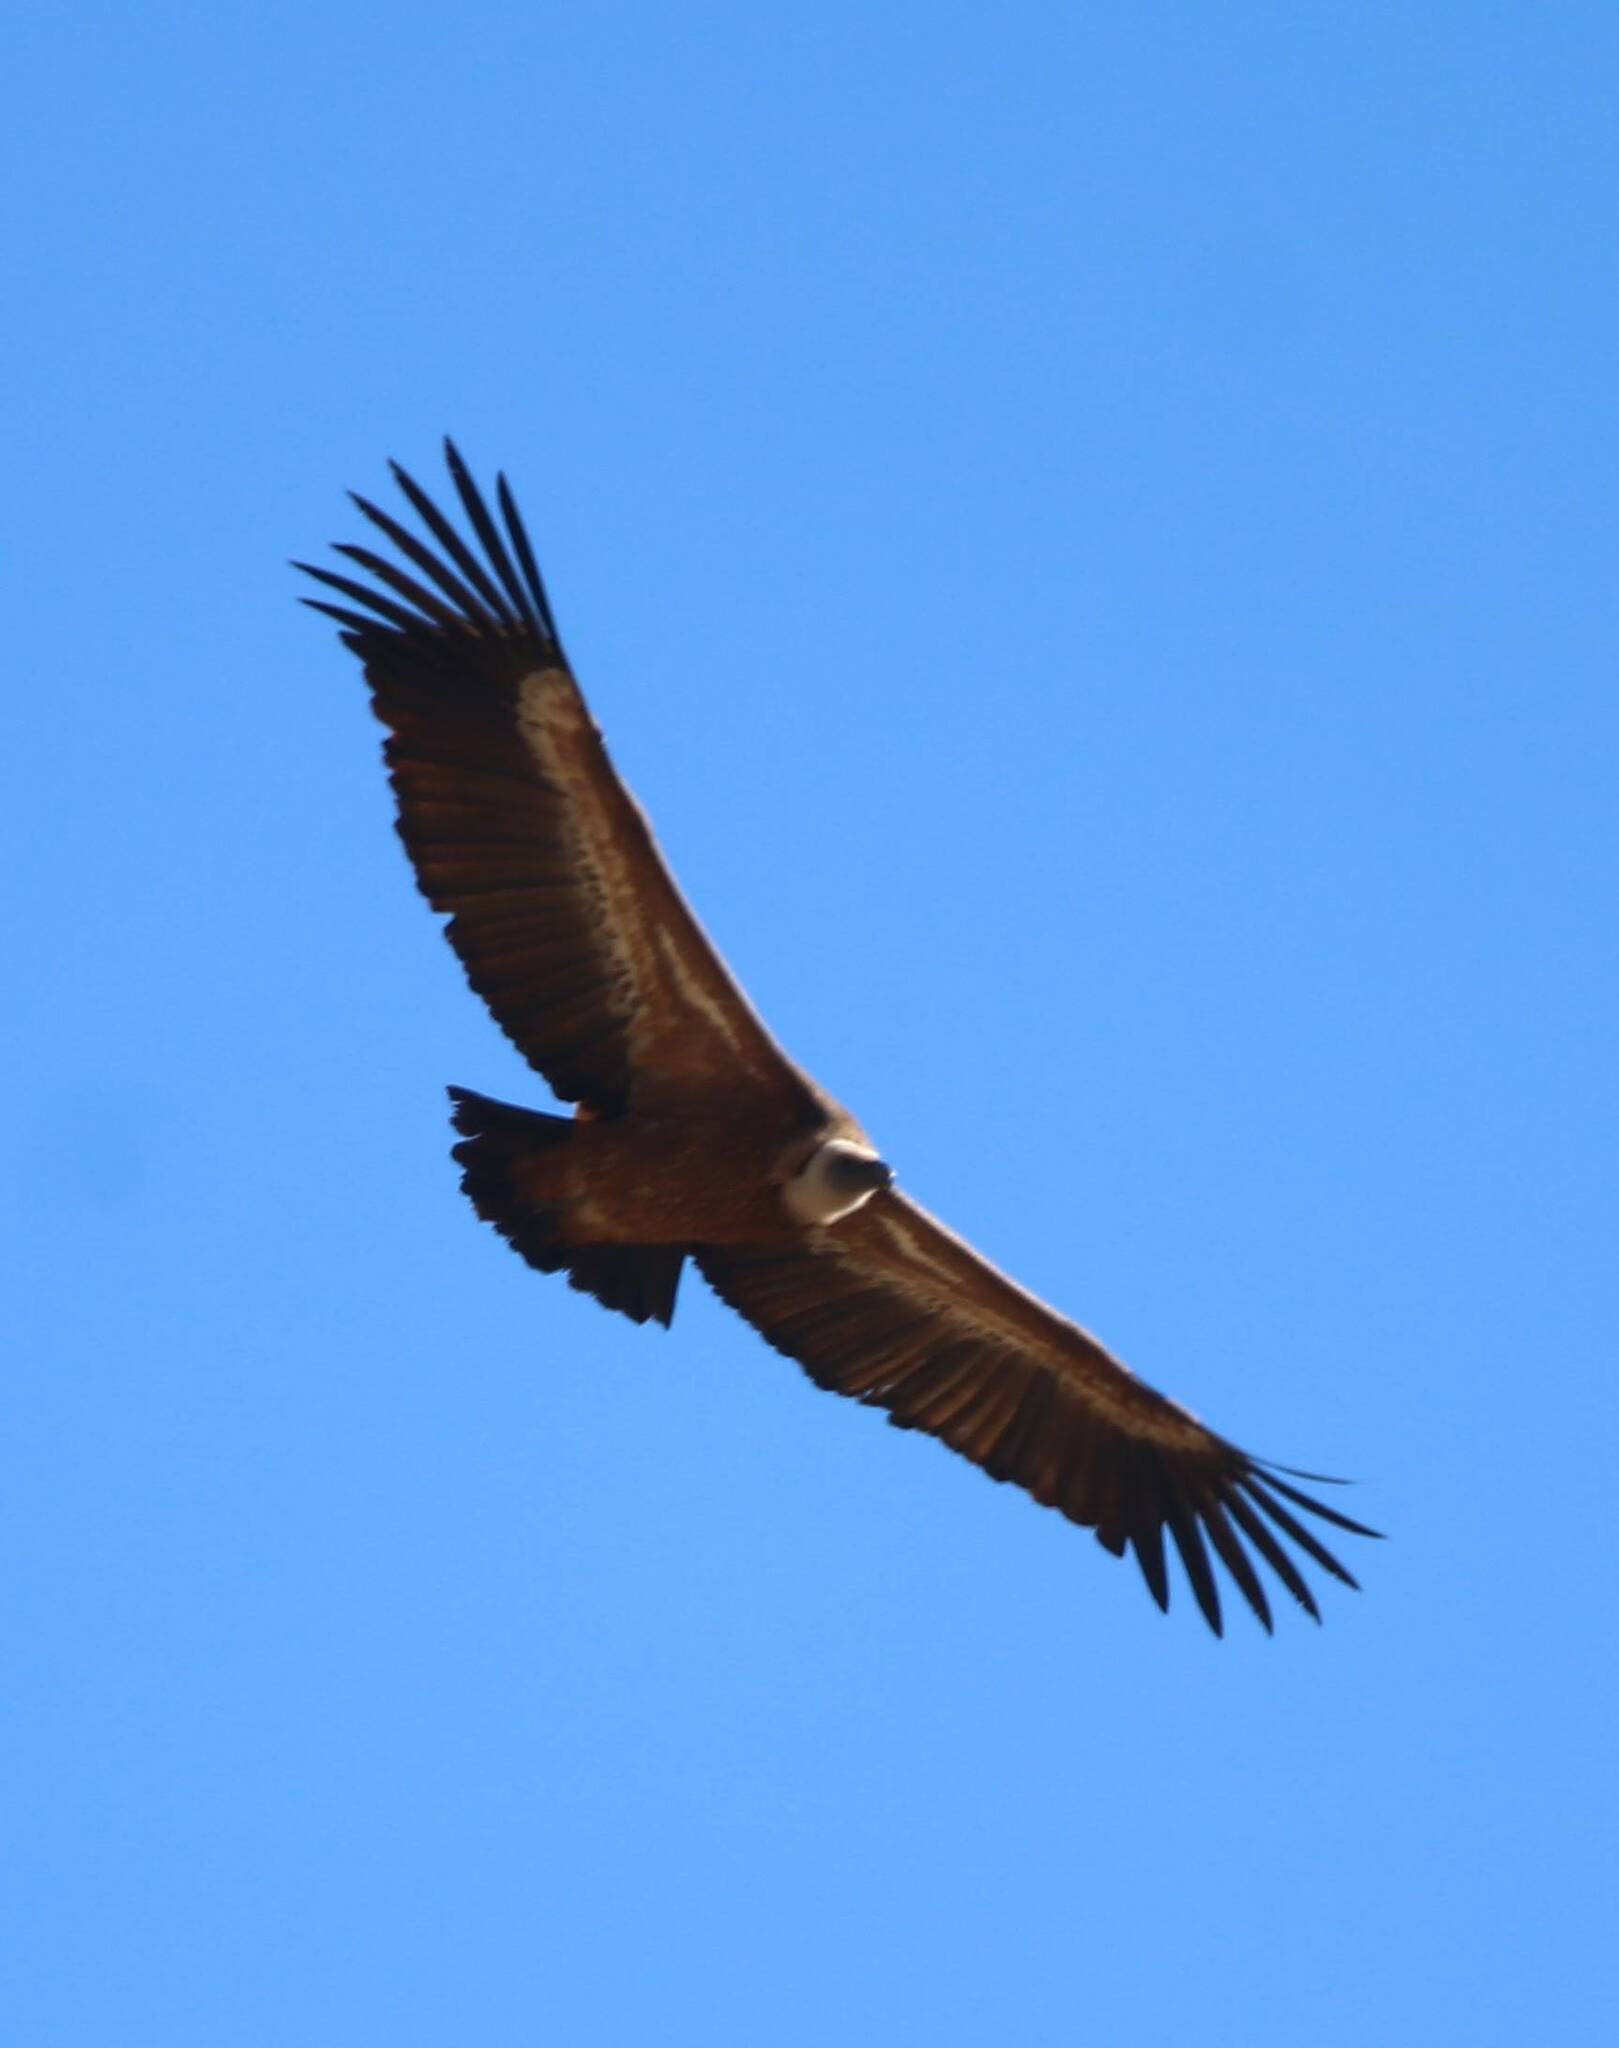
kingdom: Animalia
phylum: Chordata
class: Aves
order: Accipitriformes
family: Accipitridae
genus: Gyps
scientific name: Gyps fulvus
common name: Griffon vulture
